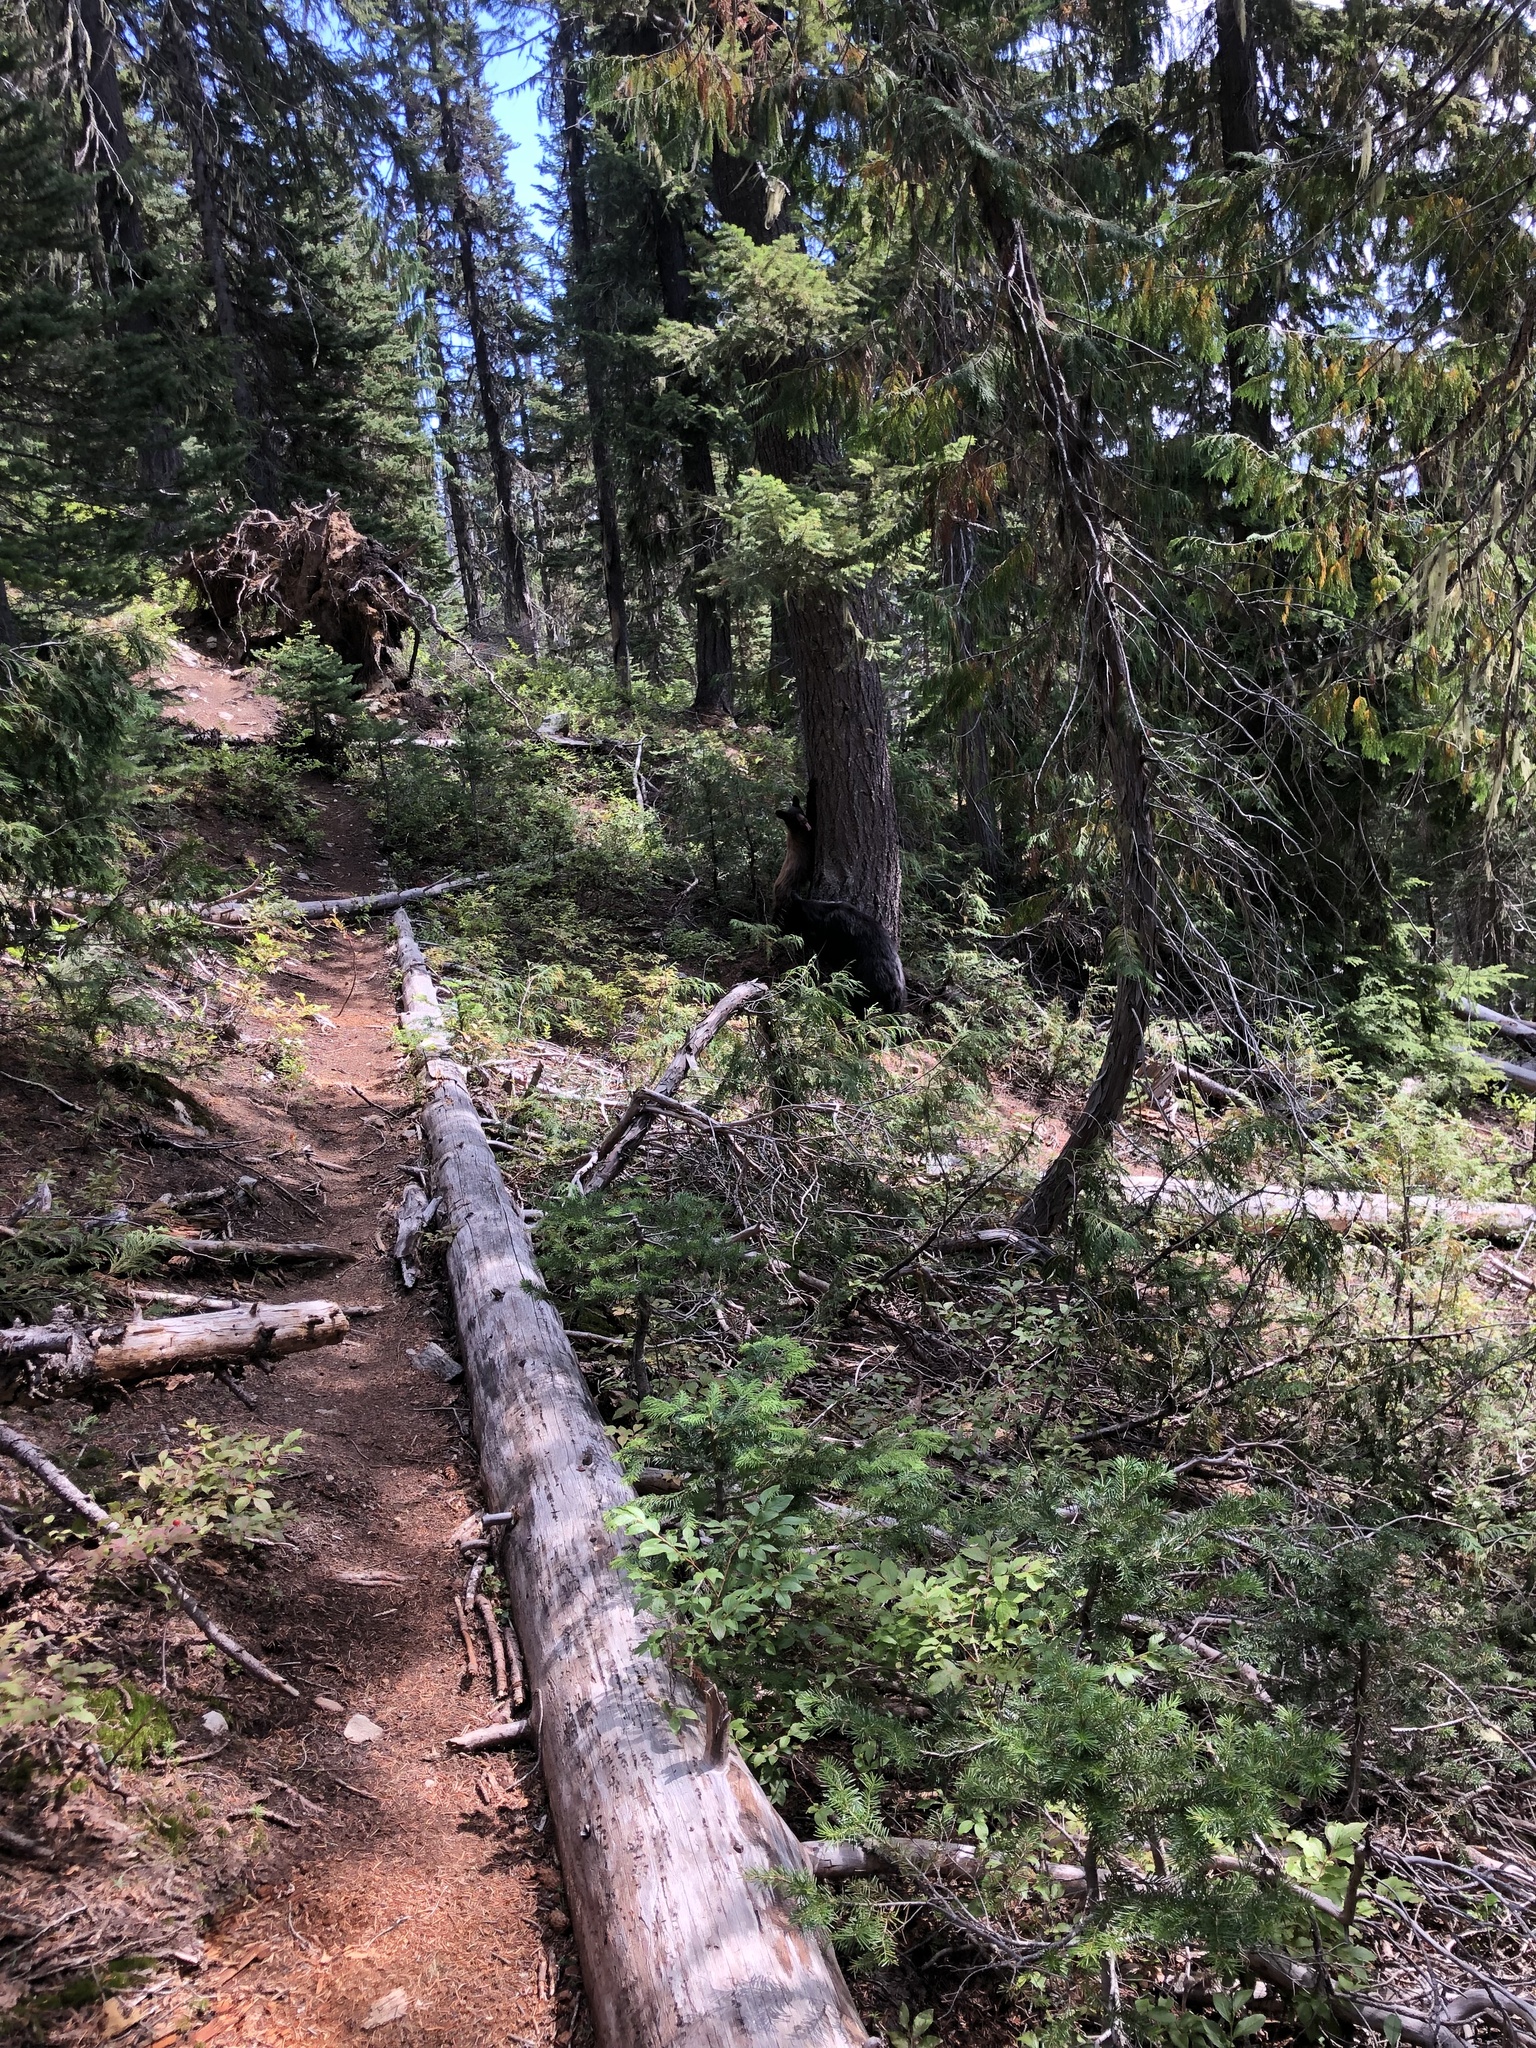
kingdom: Animalia
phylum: Chordata
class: Mammalia
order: Carnivora
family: Ursidae
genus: Ursus
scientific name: Ursus americanus
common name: American black bear
